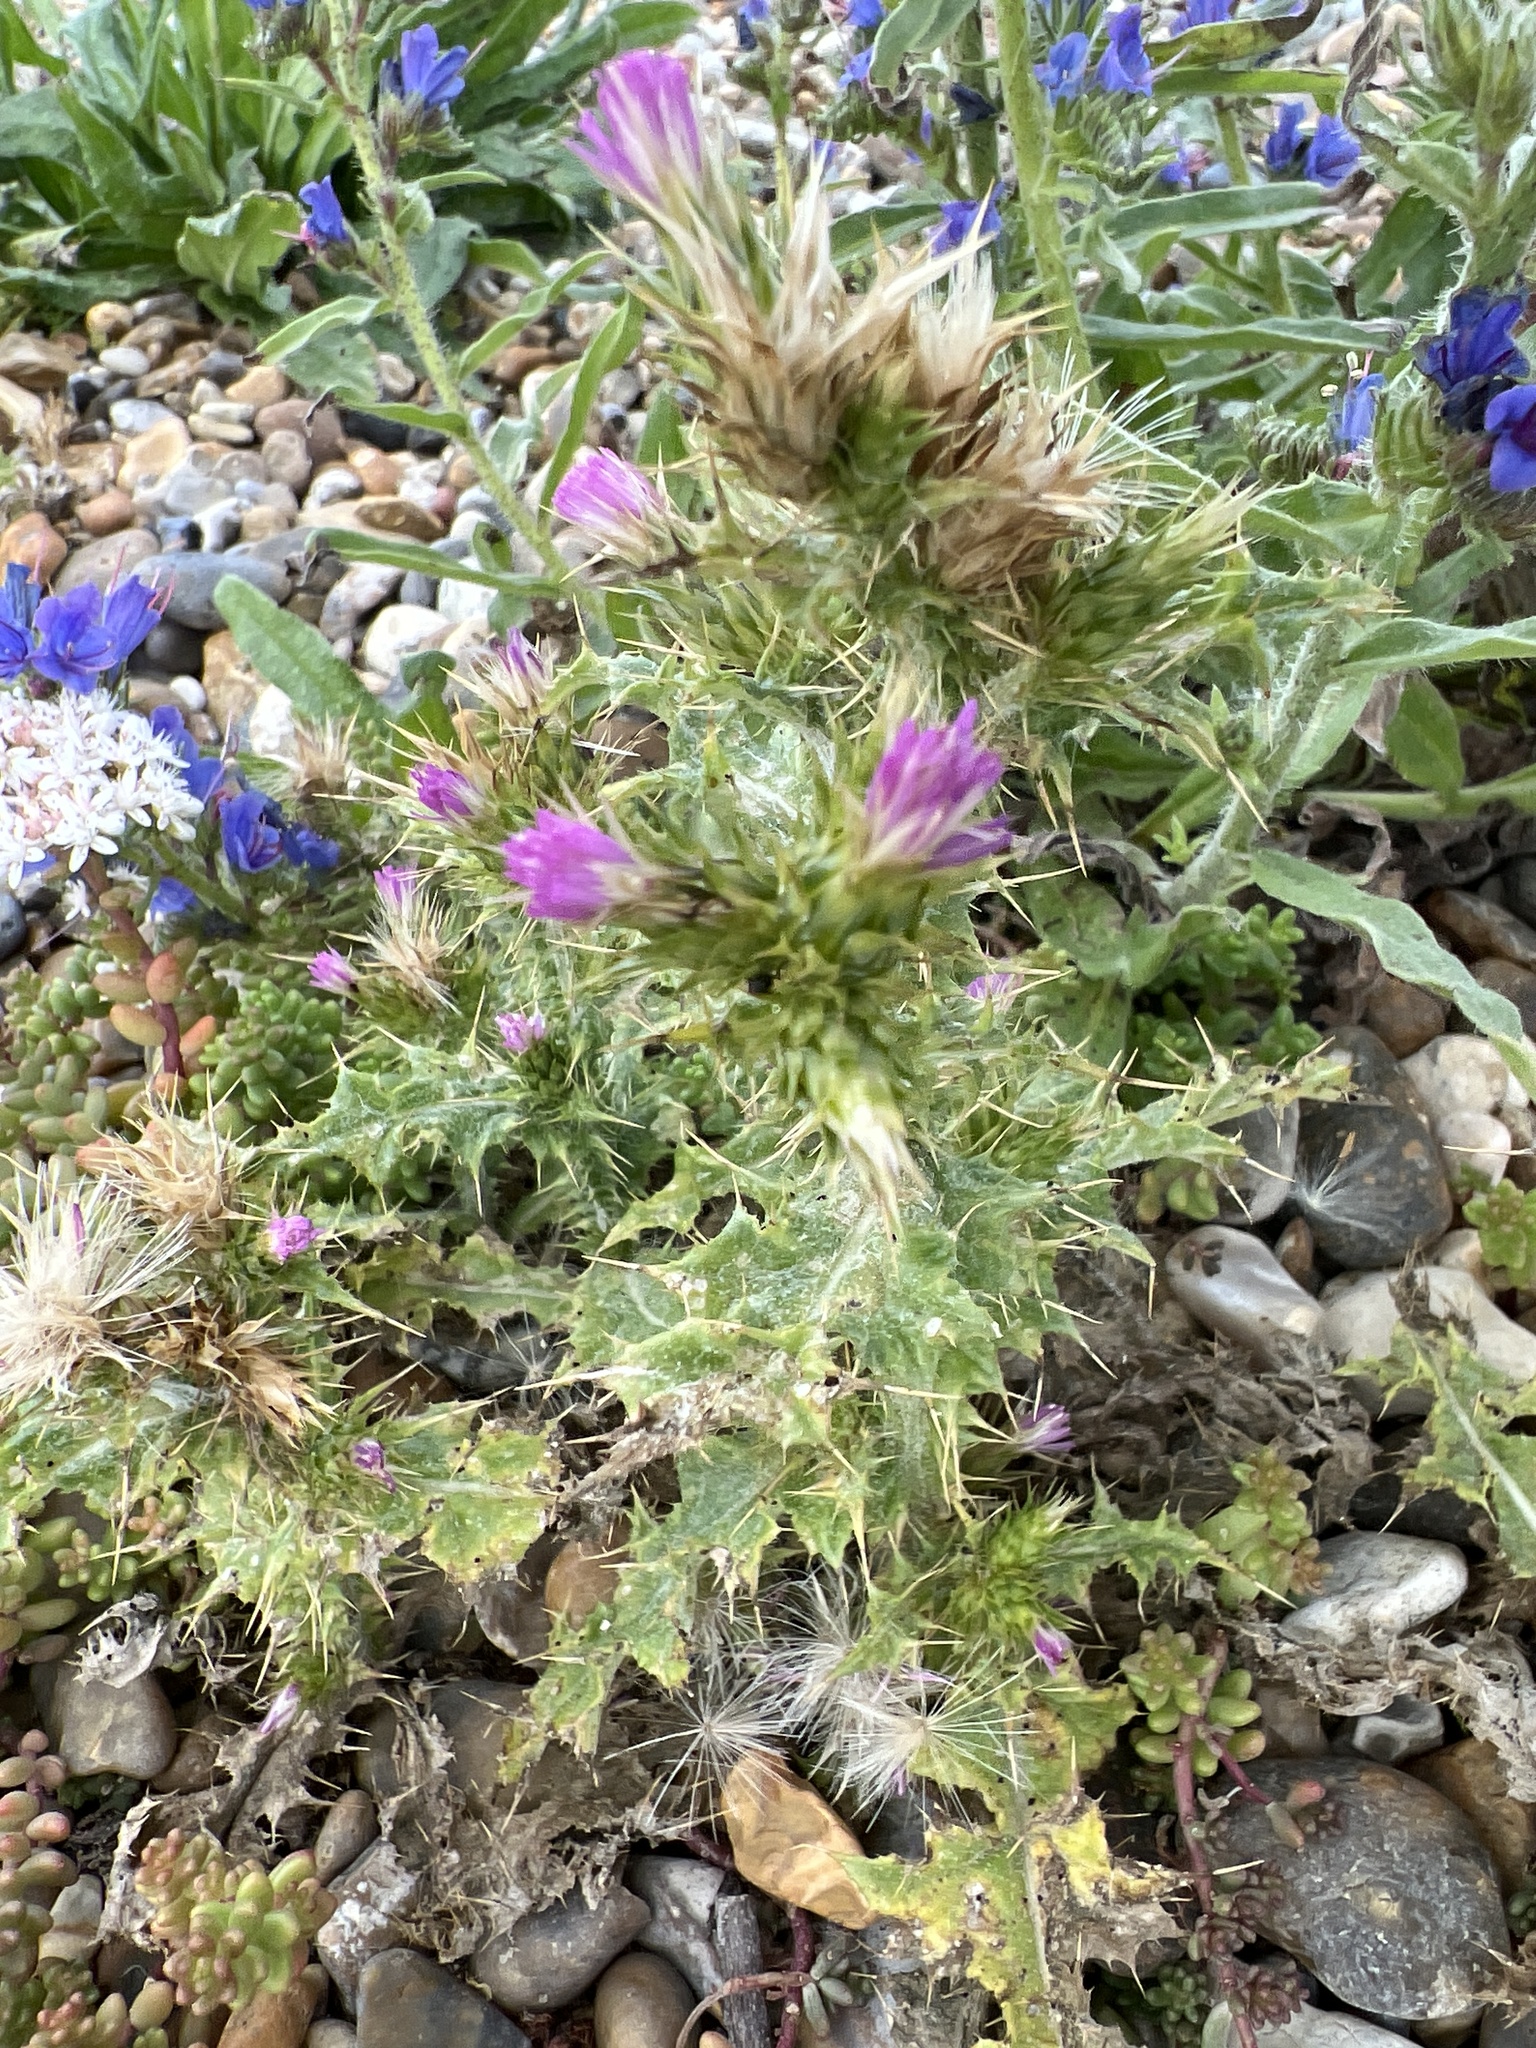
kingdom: Plantae
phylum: Tracheophyta
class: Magnoliopsida
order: Asterales
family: Asteraceae
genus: Carduus
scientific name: Carduus tenuiflorus
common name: Slender thistle
